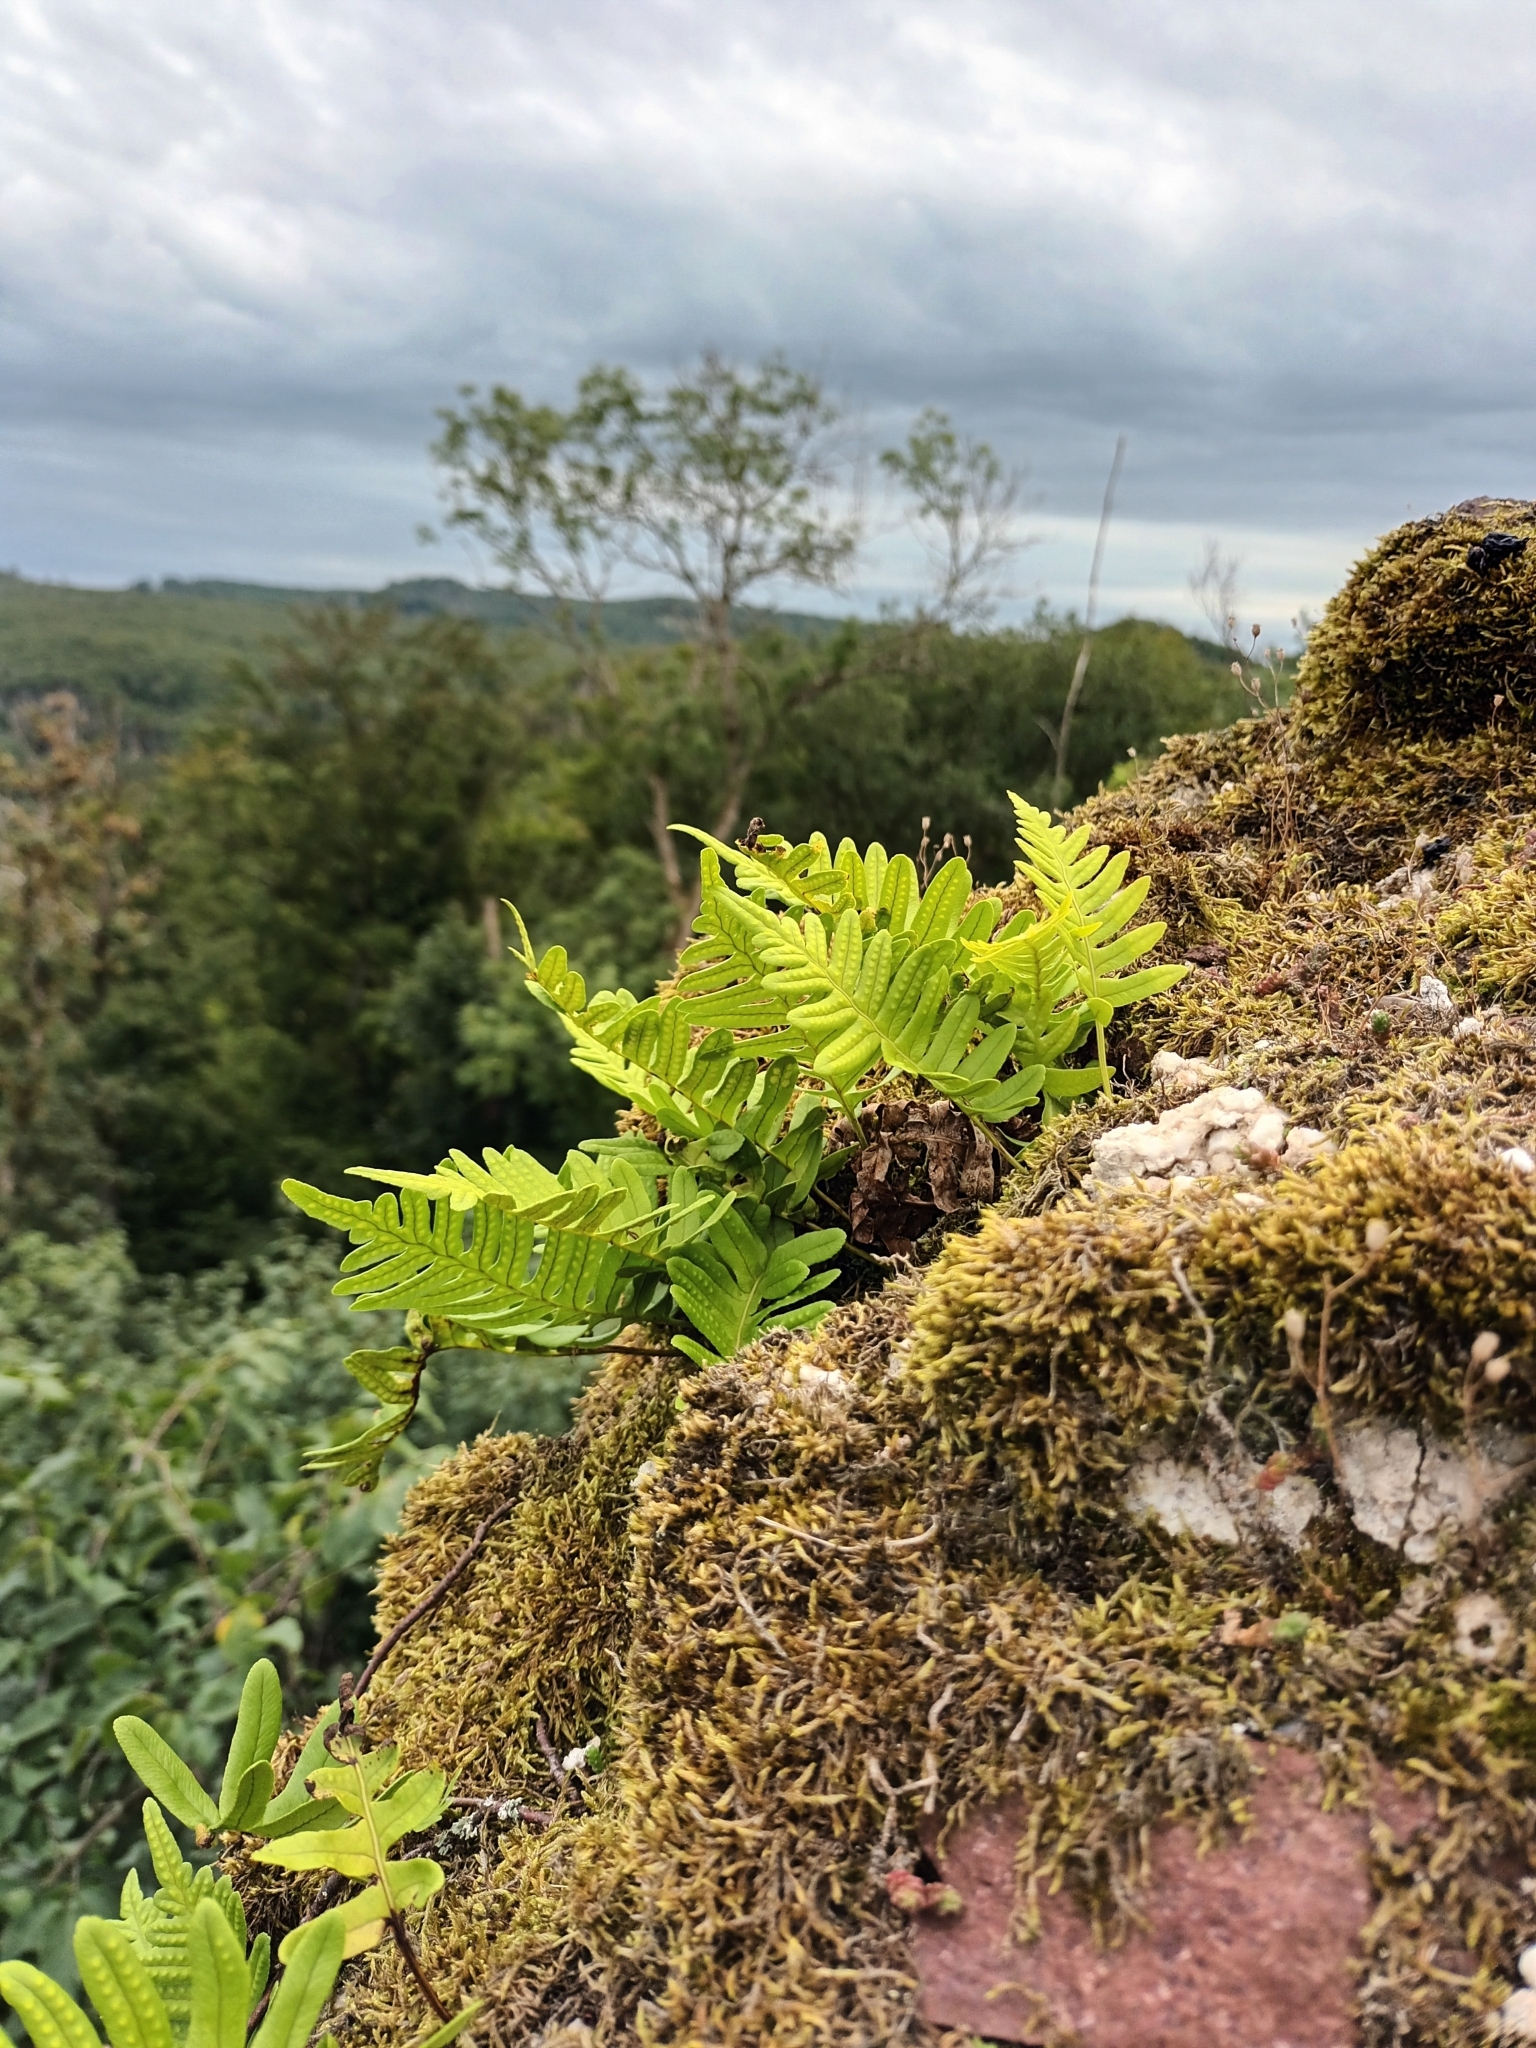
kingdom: Plantae
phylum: Tracheophyta
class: Polypodiopsida
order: Polypodiales
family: Polypodiaceae
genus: Polypodium
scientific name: Polypodium vulgare
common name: Common polypody
